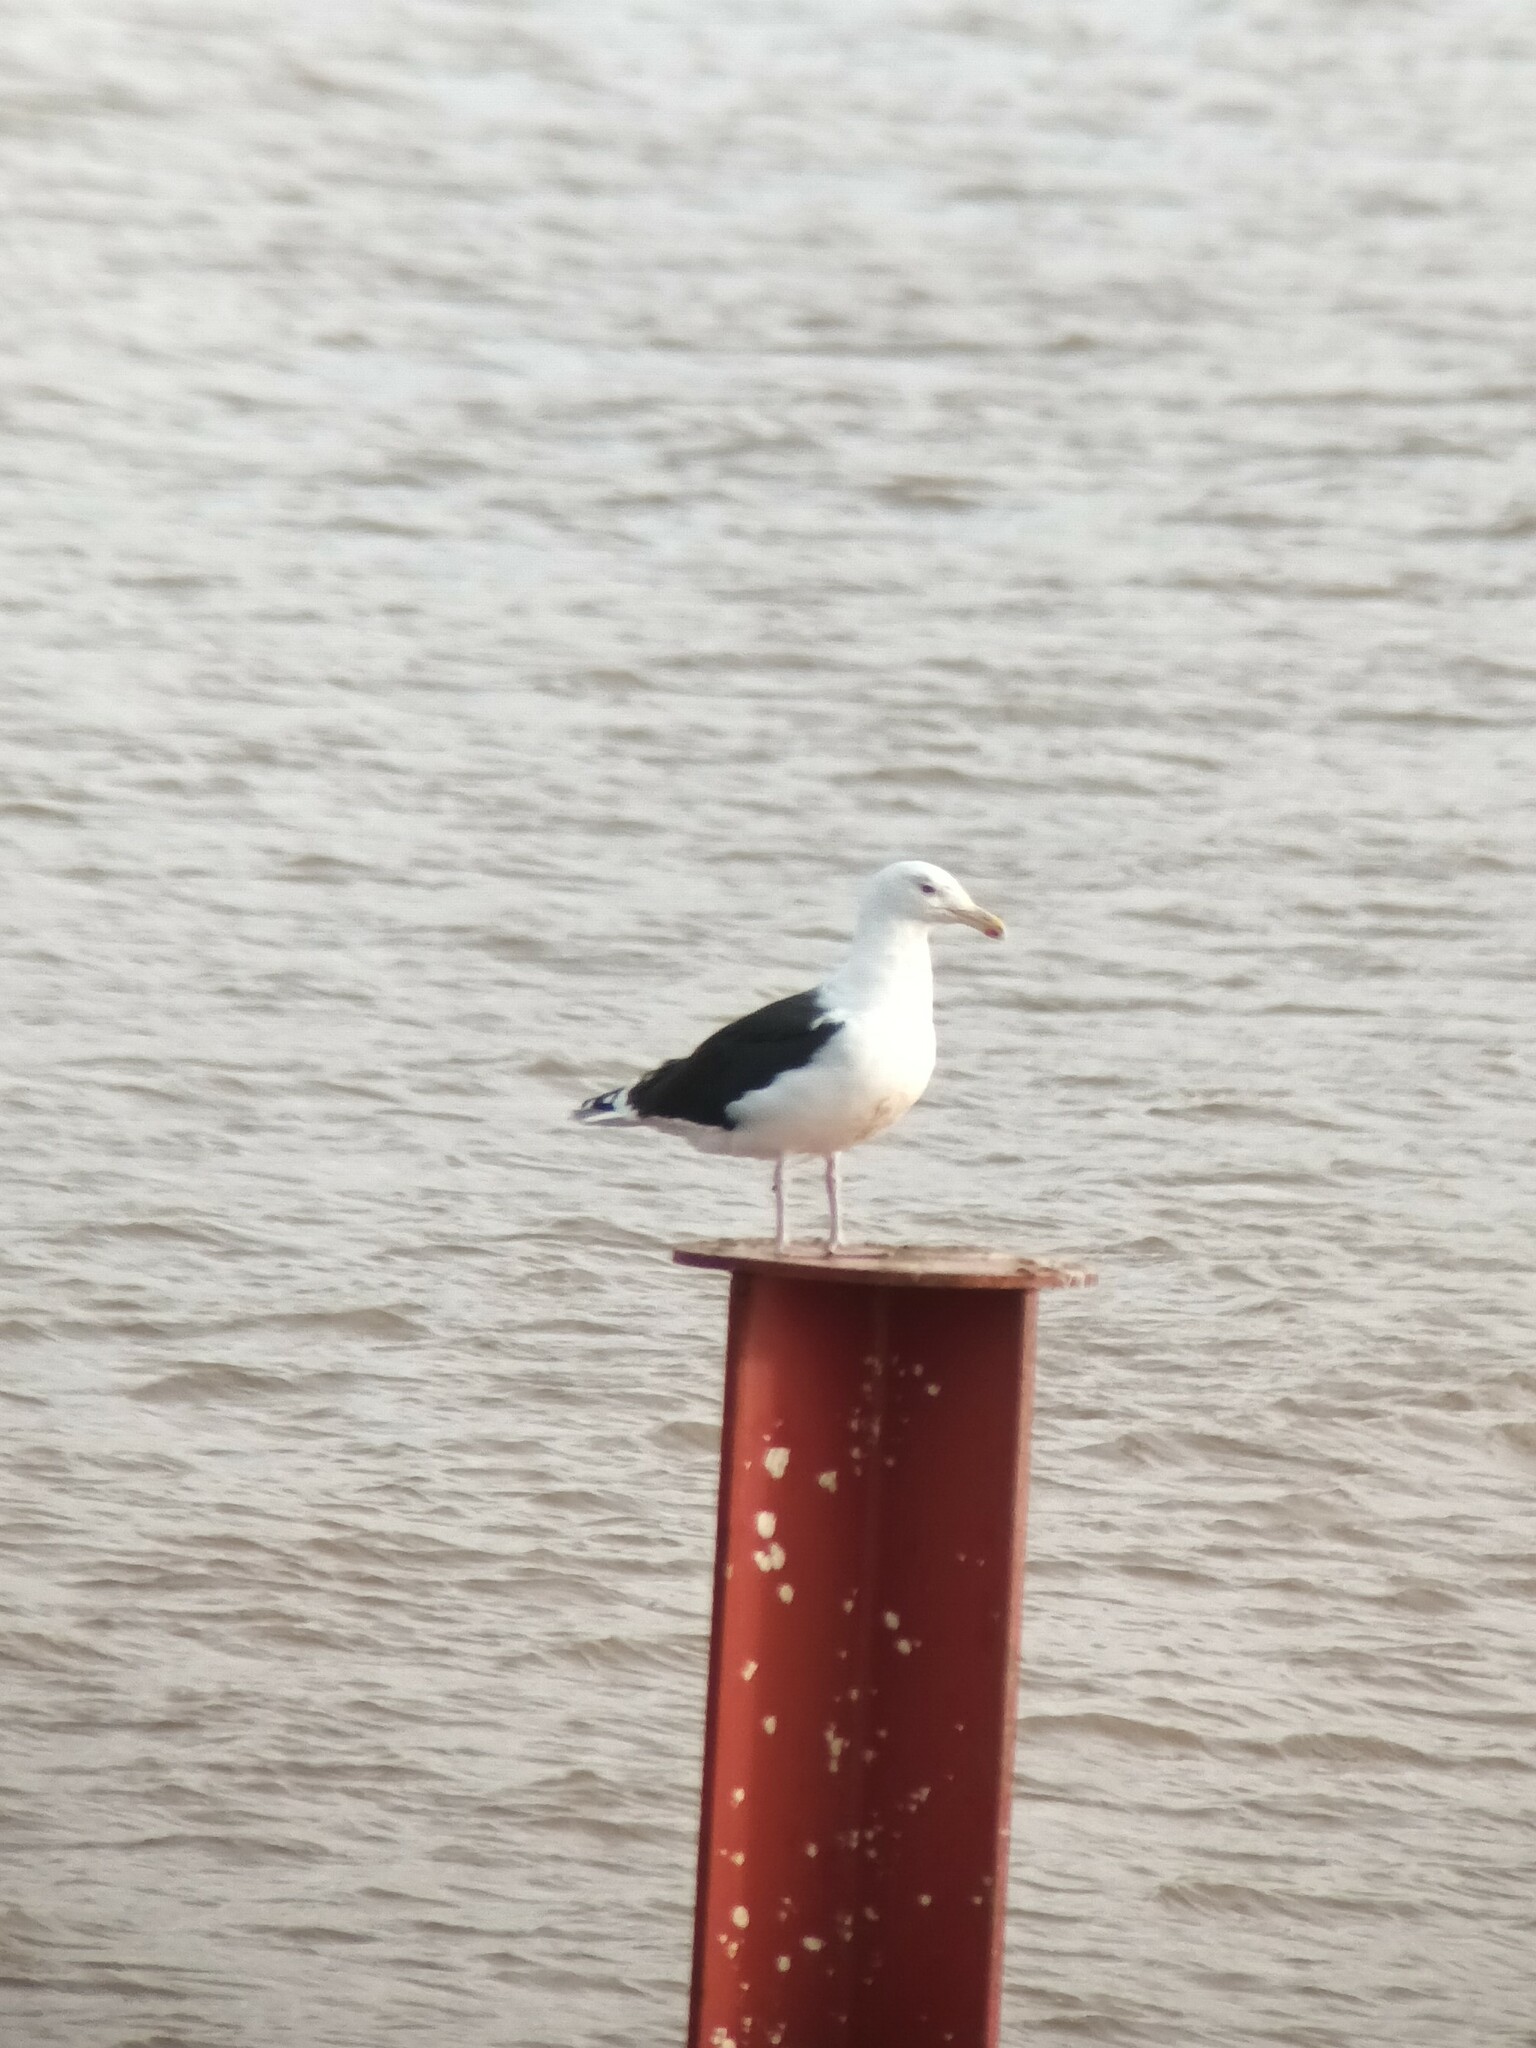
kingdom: Animalia
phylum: Chordata
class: Aves
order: Charadriiformes
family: Laridae
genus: Larus
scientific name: Larus marinus
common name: Great black-backed gull
